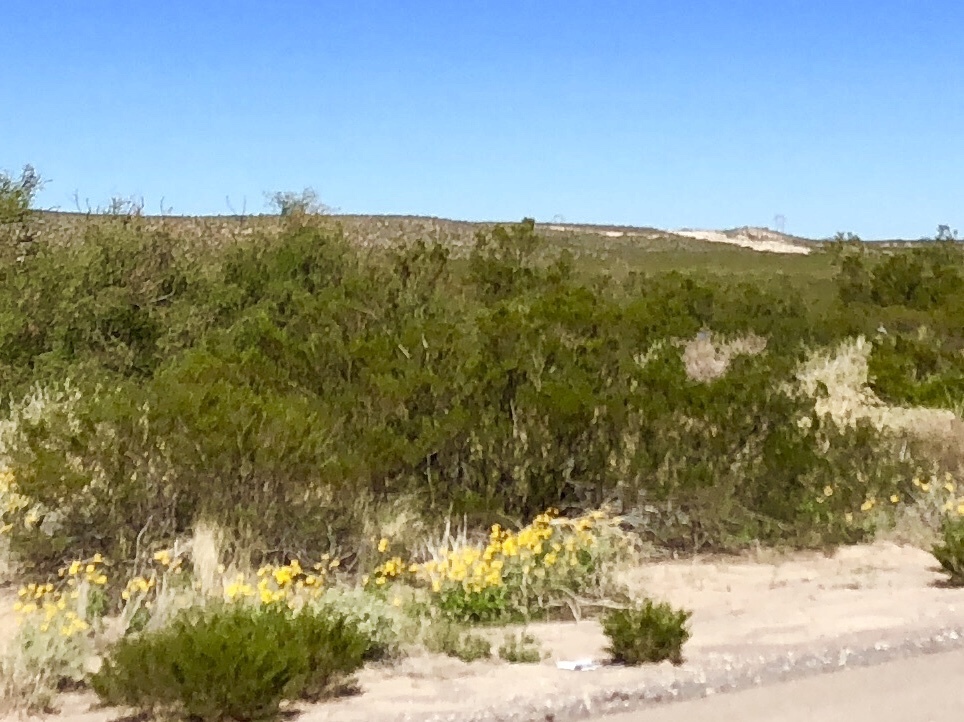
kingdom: Plantae
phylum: Tracheophyta
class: Magnoliopsida
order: Zygophyllales
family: Zygophyllaceae
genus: Larrea
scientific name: Larrea tridentata
